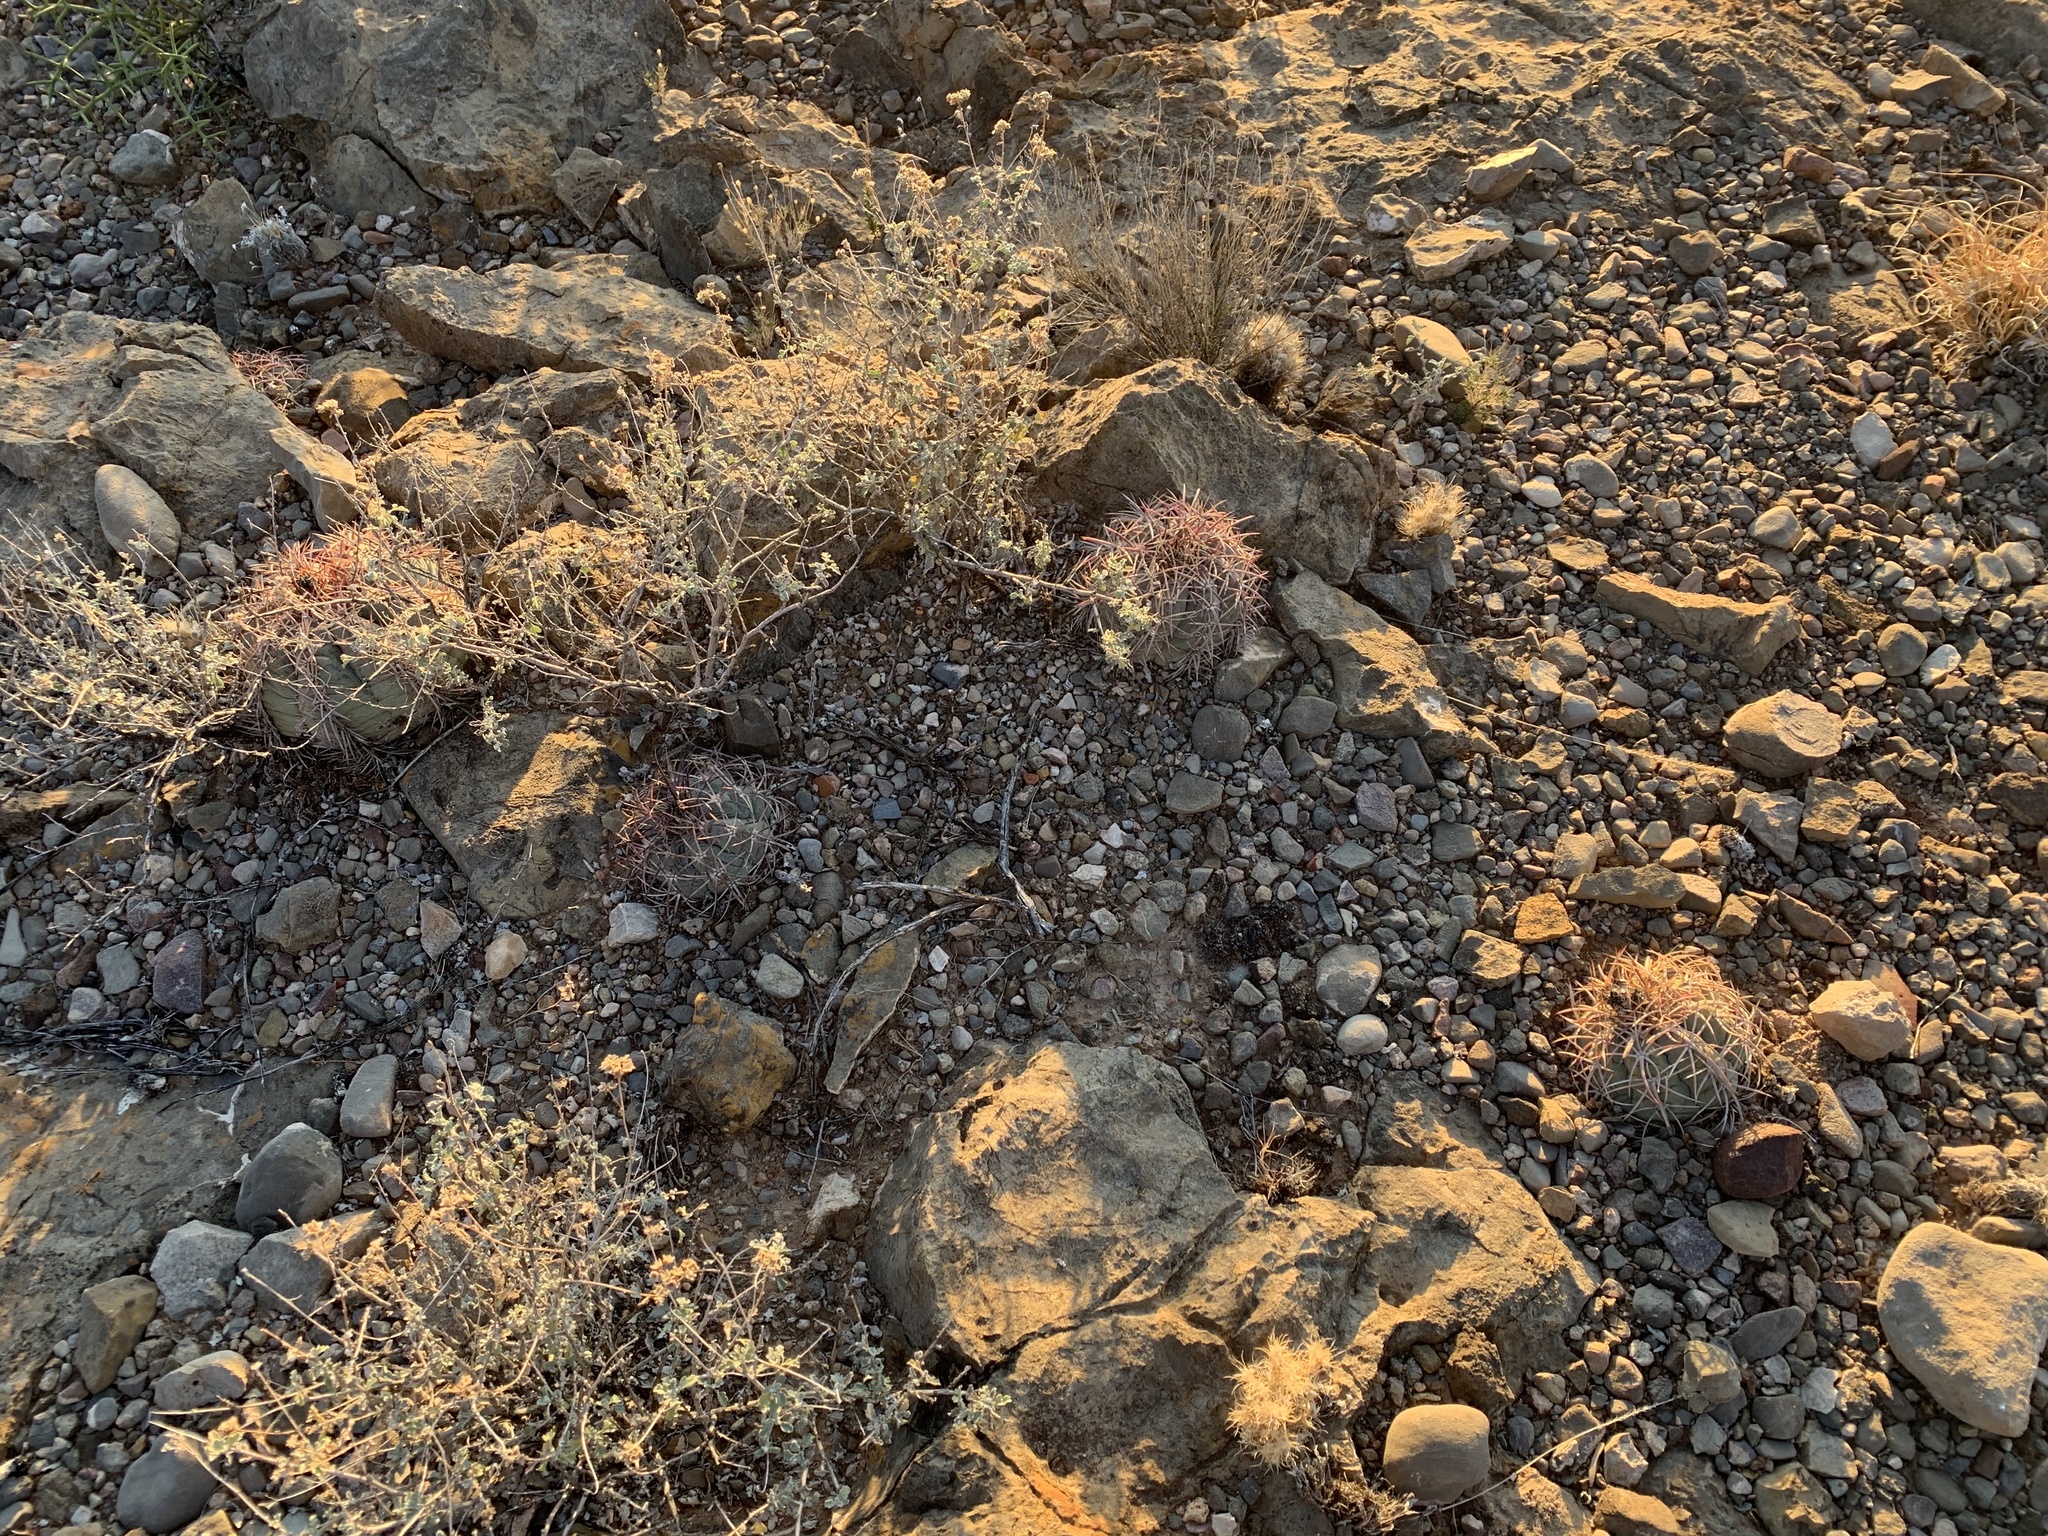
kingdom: Plantae
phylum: Tracheophyta
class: Magnoliopsida
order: Caryophyllales
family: Cactaceae
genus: Echinocactus
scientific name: Echinocactus horizonthalonius
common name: Devilshead
